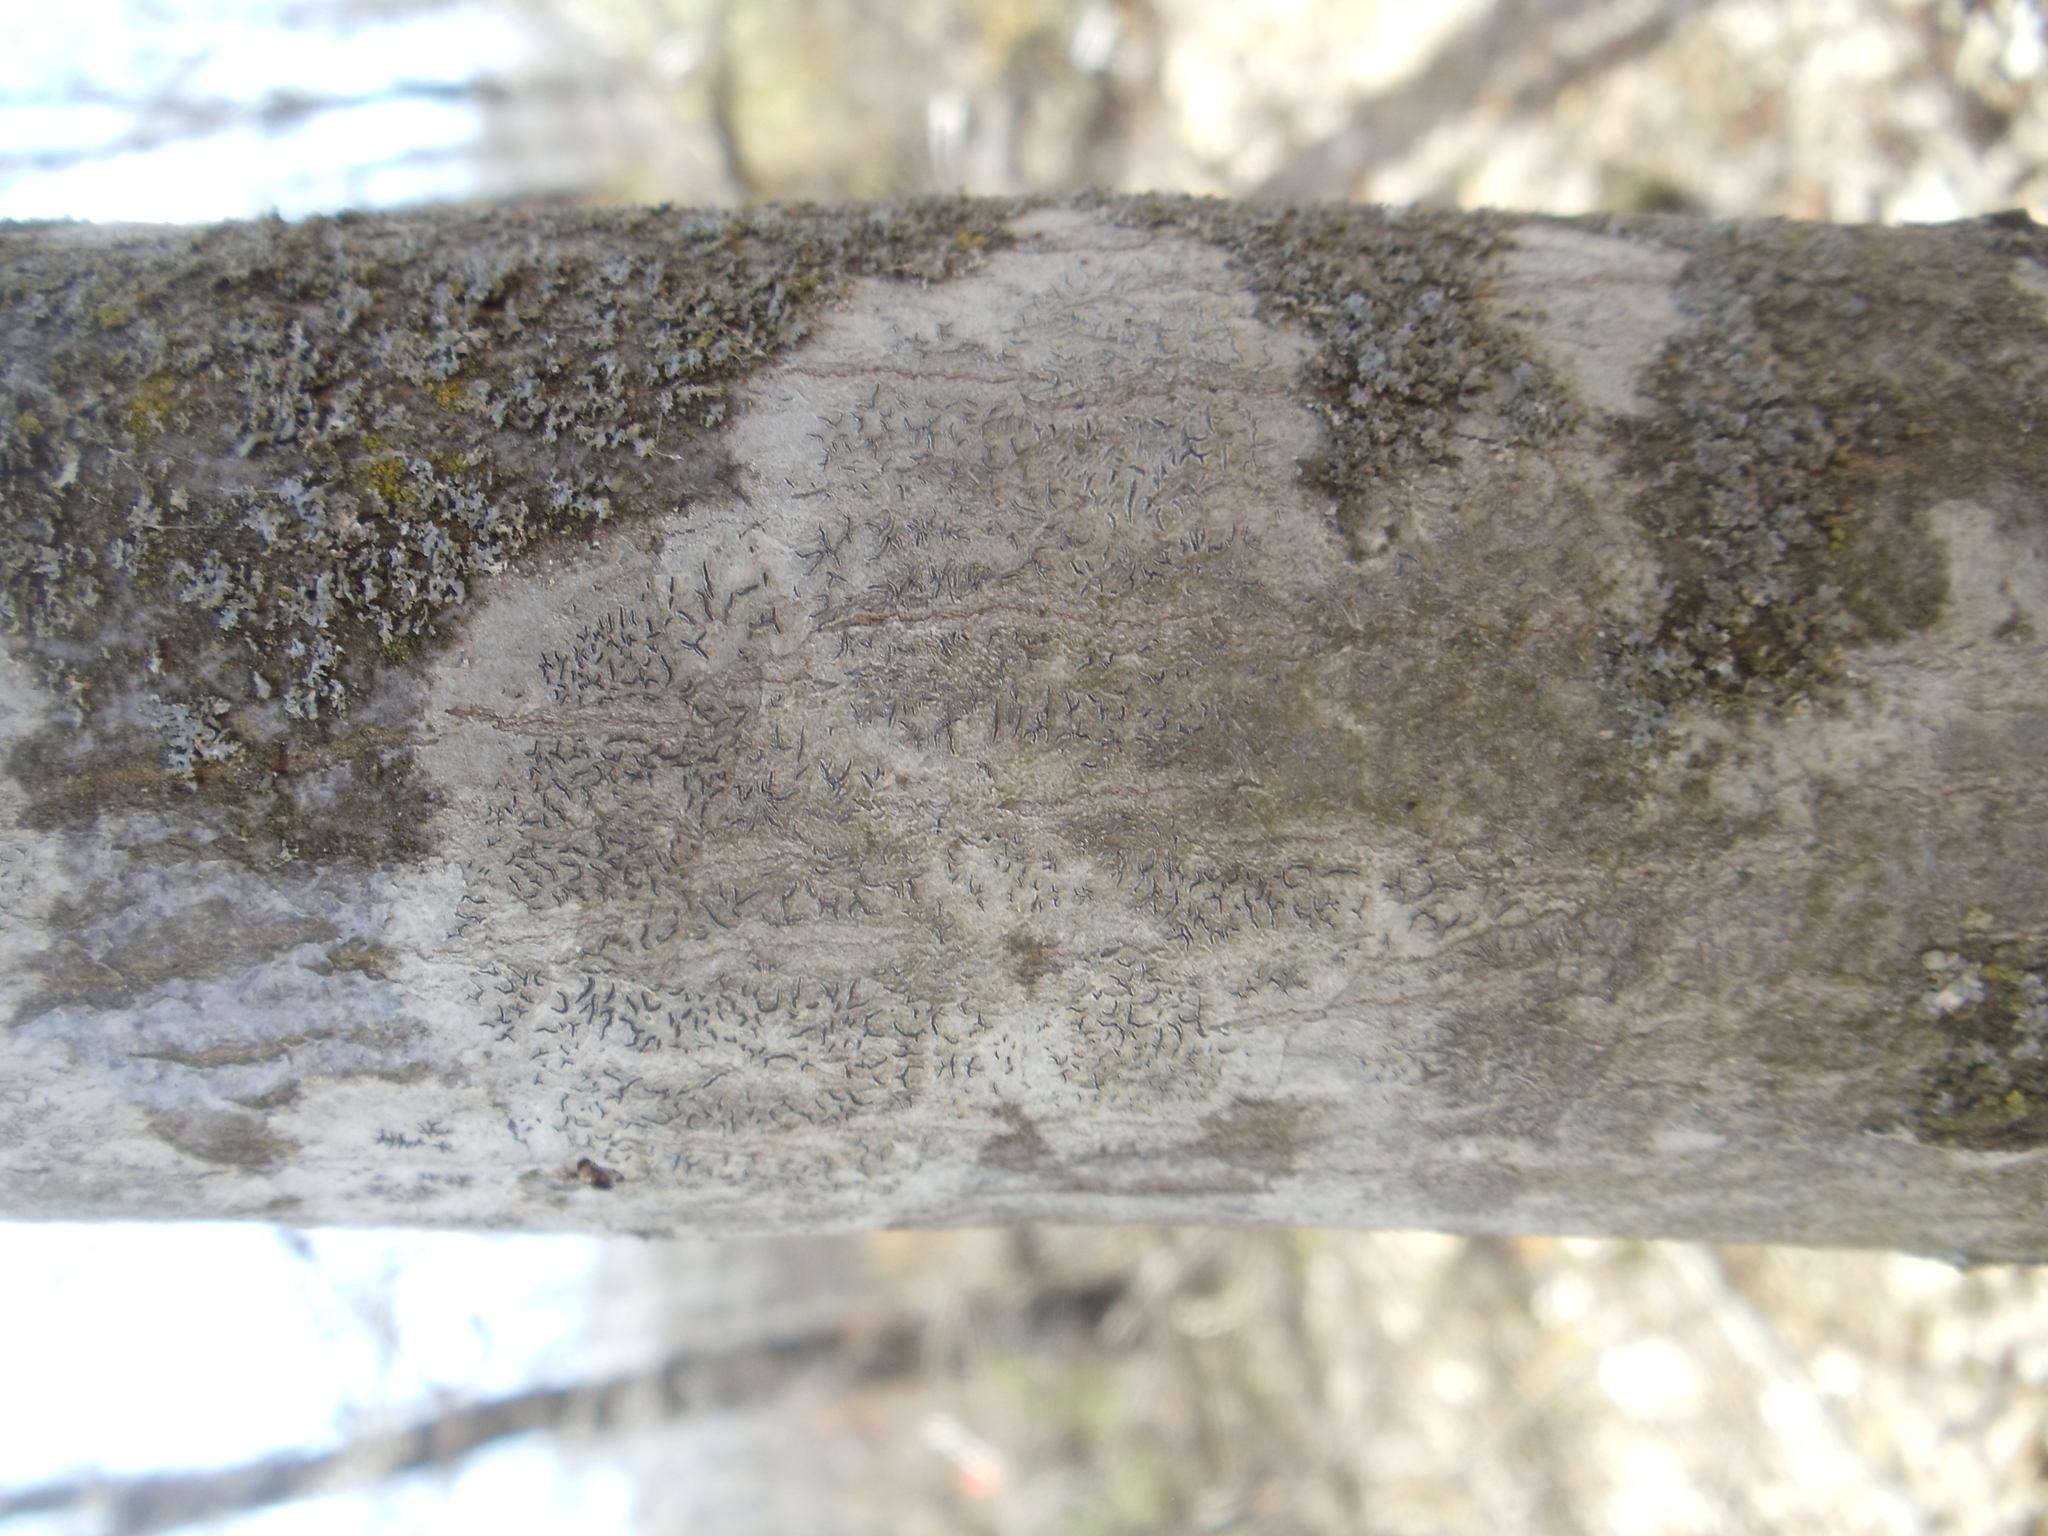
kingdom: Fungi
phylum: Ascomycota
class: Lecanoromycetes
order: Ostropales
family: Graphidaceae
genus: Graphis
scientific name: Graphis scripta
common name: Script lichen
